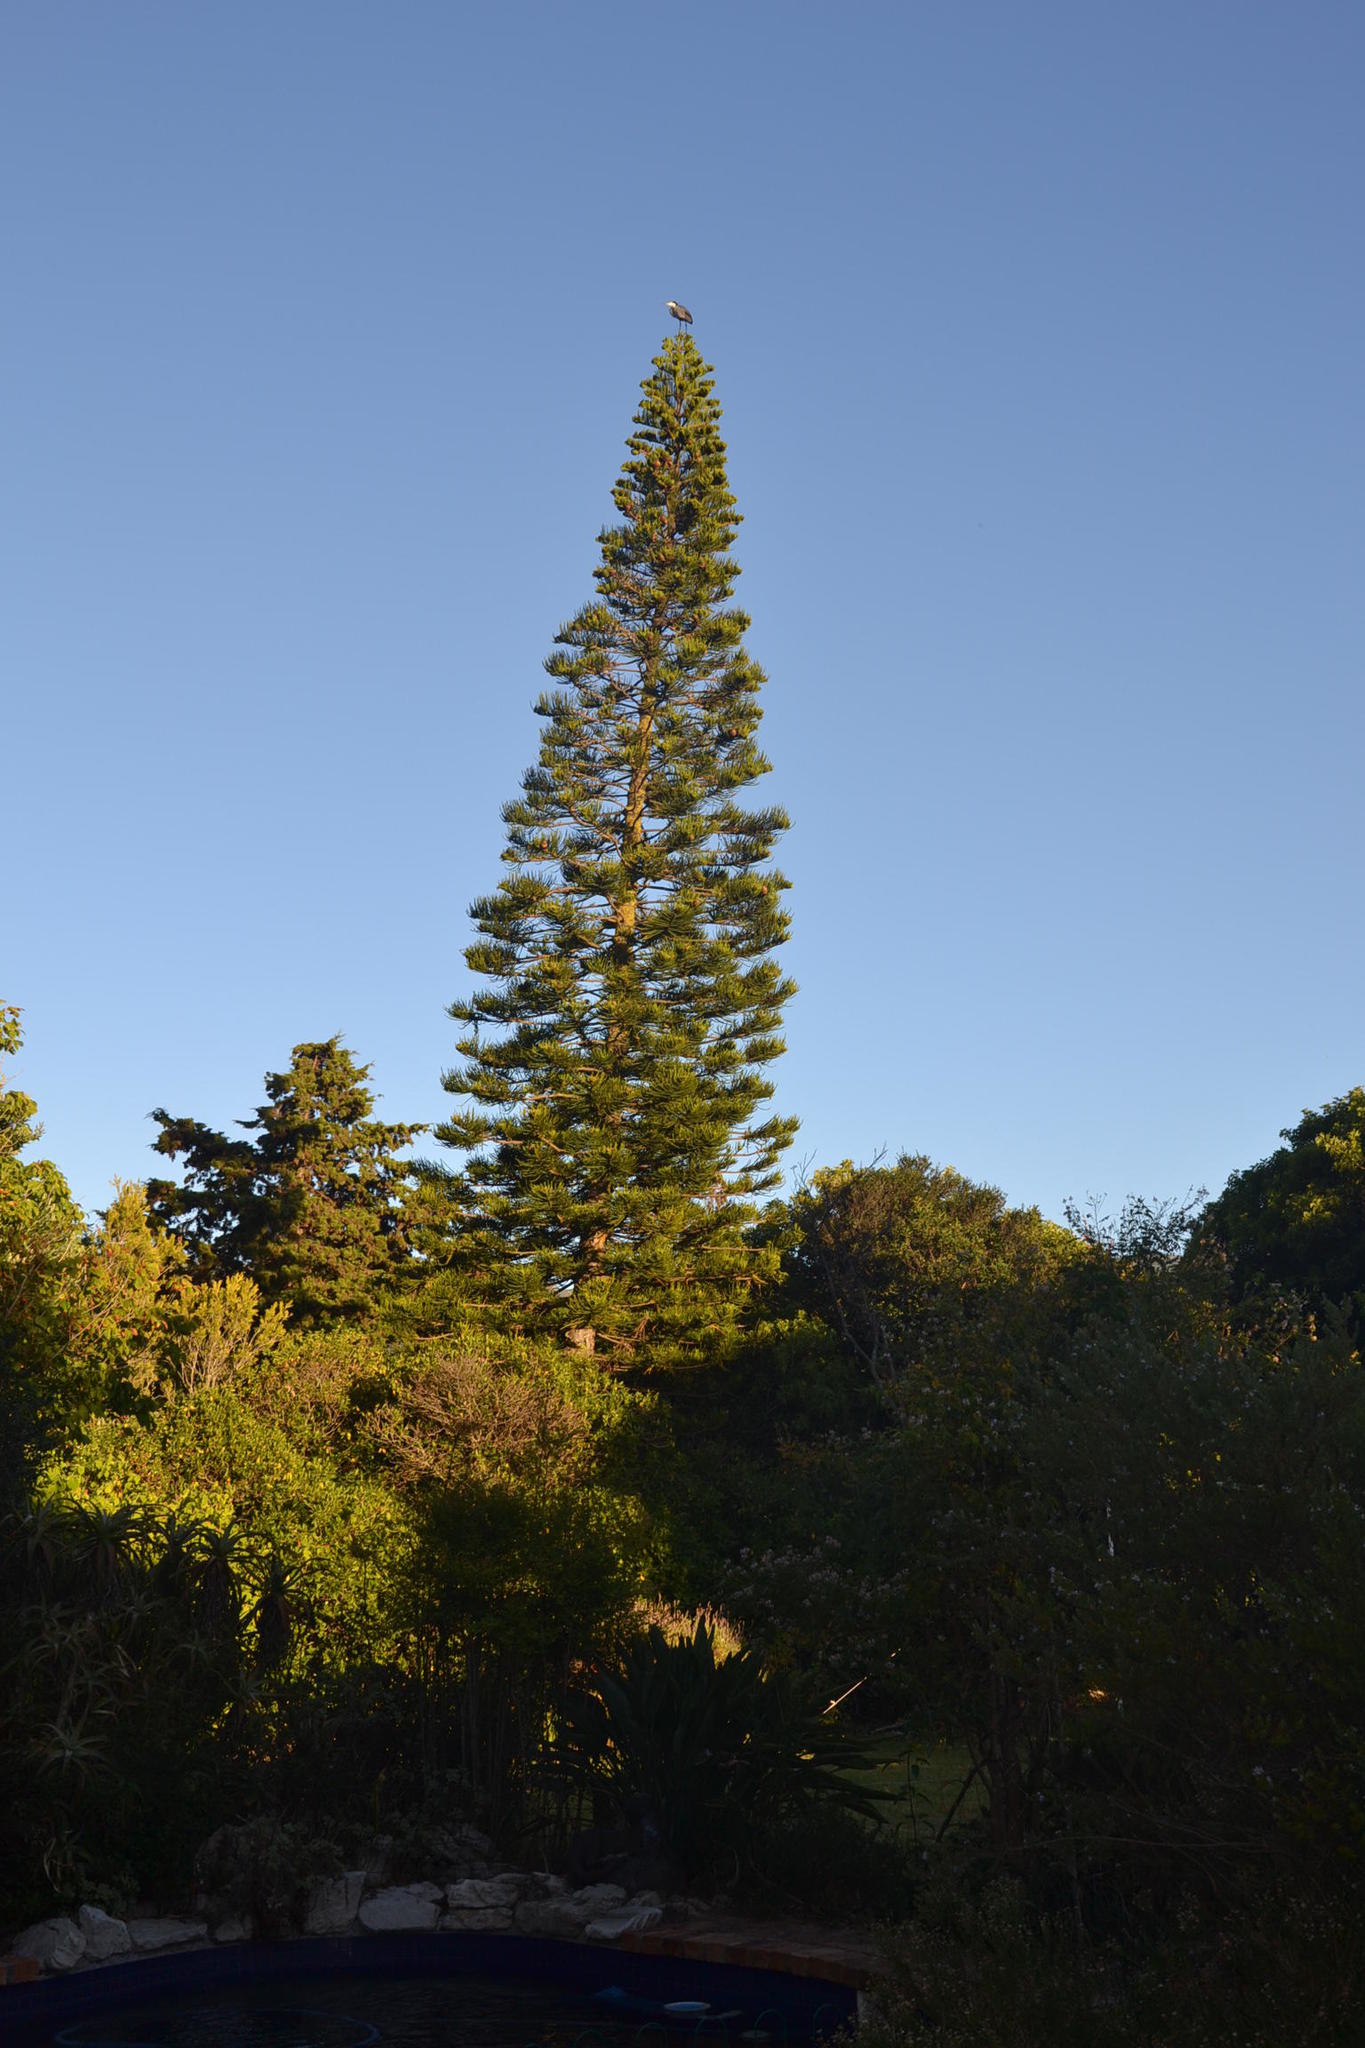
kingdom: Animalia
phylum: Chordata
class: Aves
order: Pelecaniformes
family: Ardeidae
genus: Ardea
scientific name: Ardea melanocephala
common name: Black-headed heron
